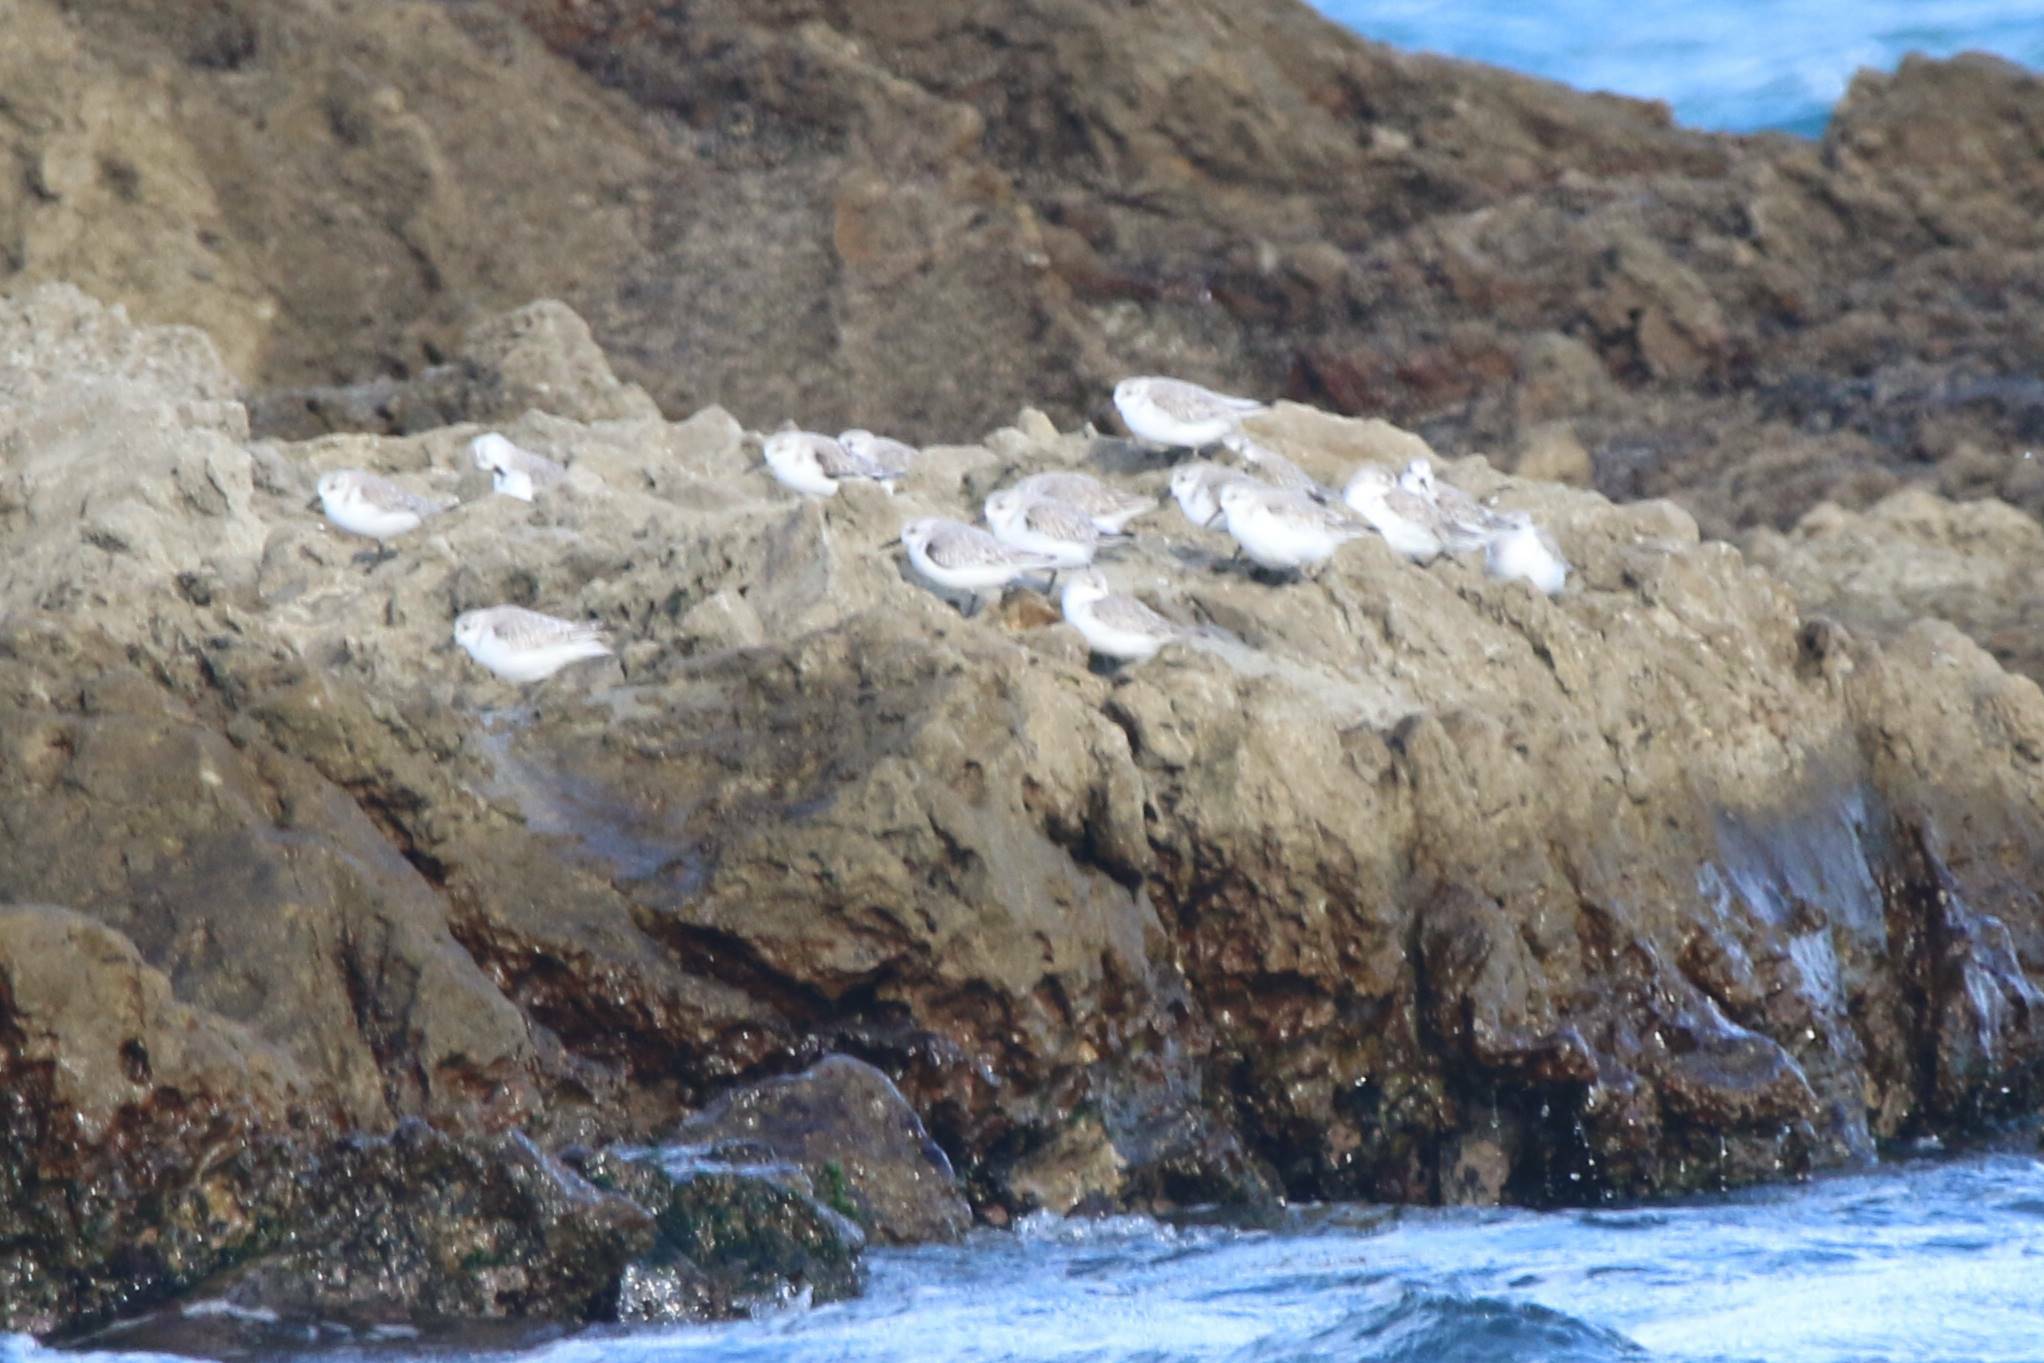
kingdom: Animalia
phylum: Chordata
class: Aves
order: Charadriiformes
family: Scolopacidae
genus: Calidris
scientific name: Calidris alba
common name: Sanderling
